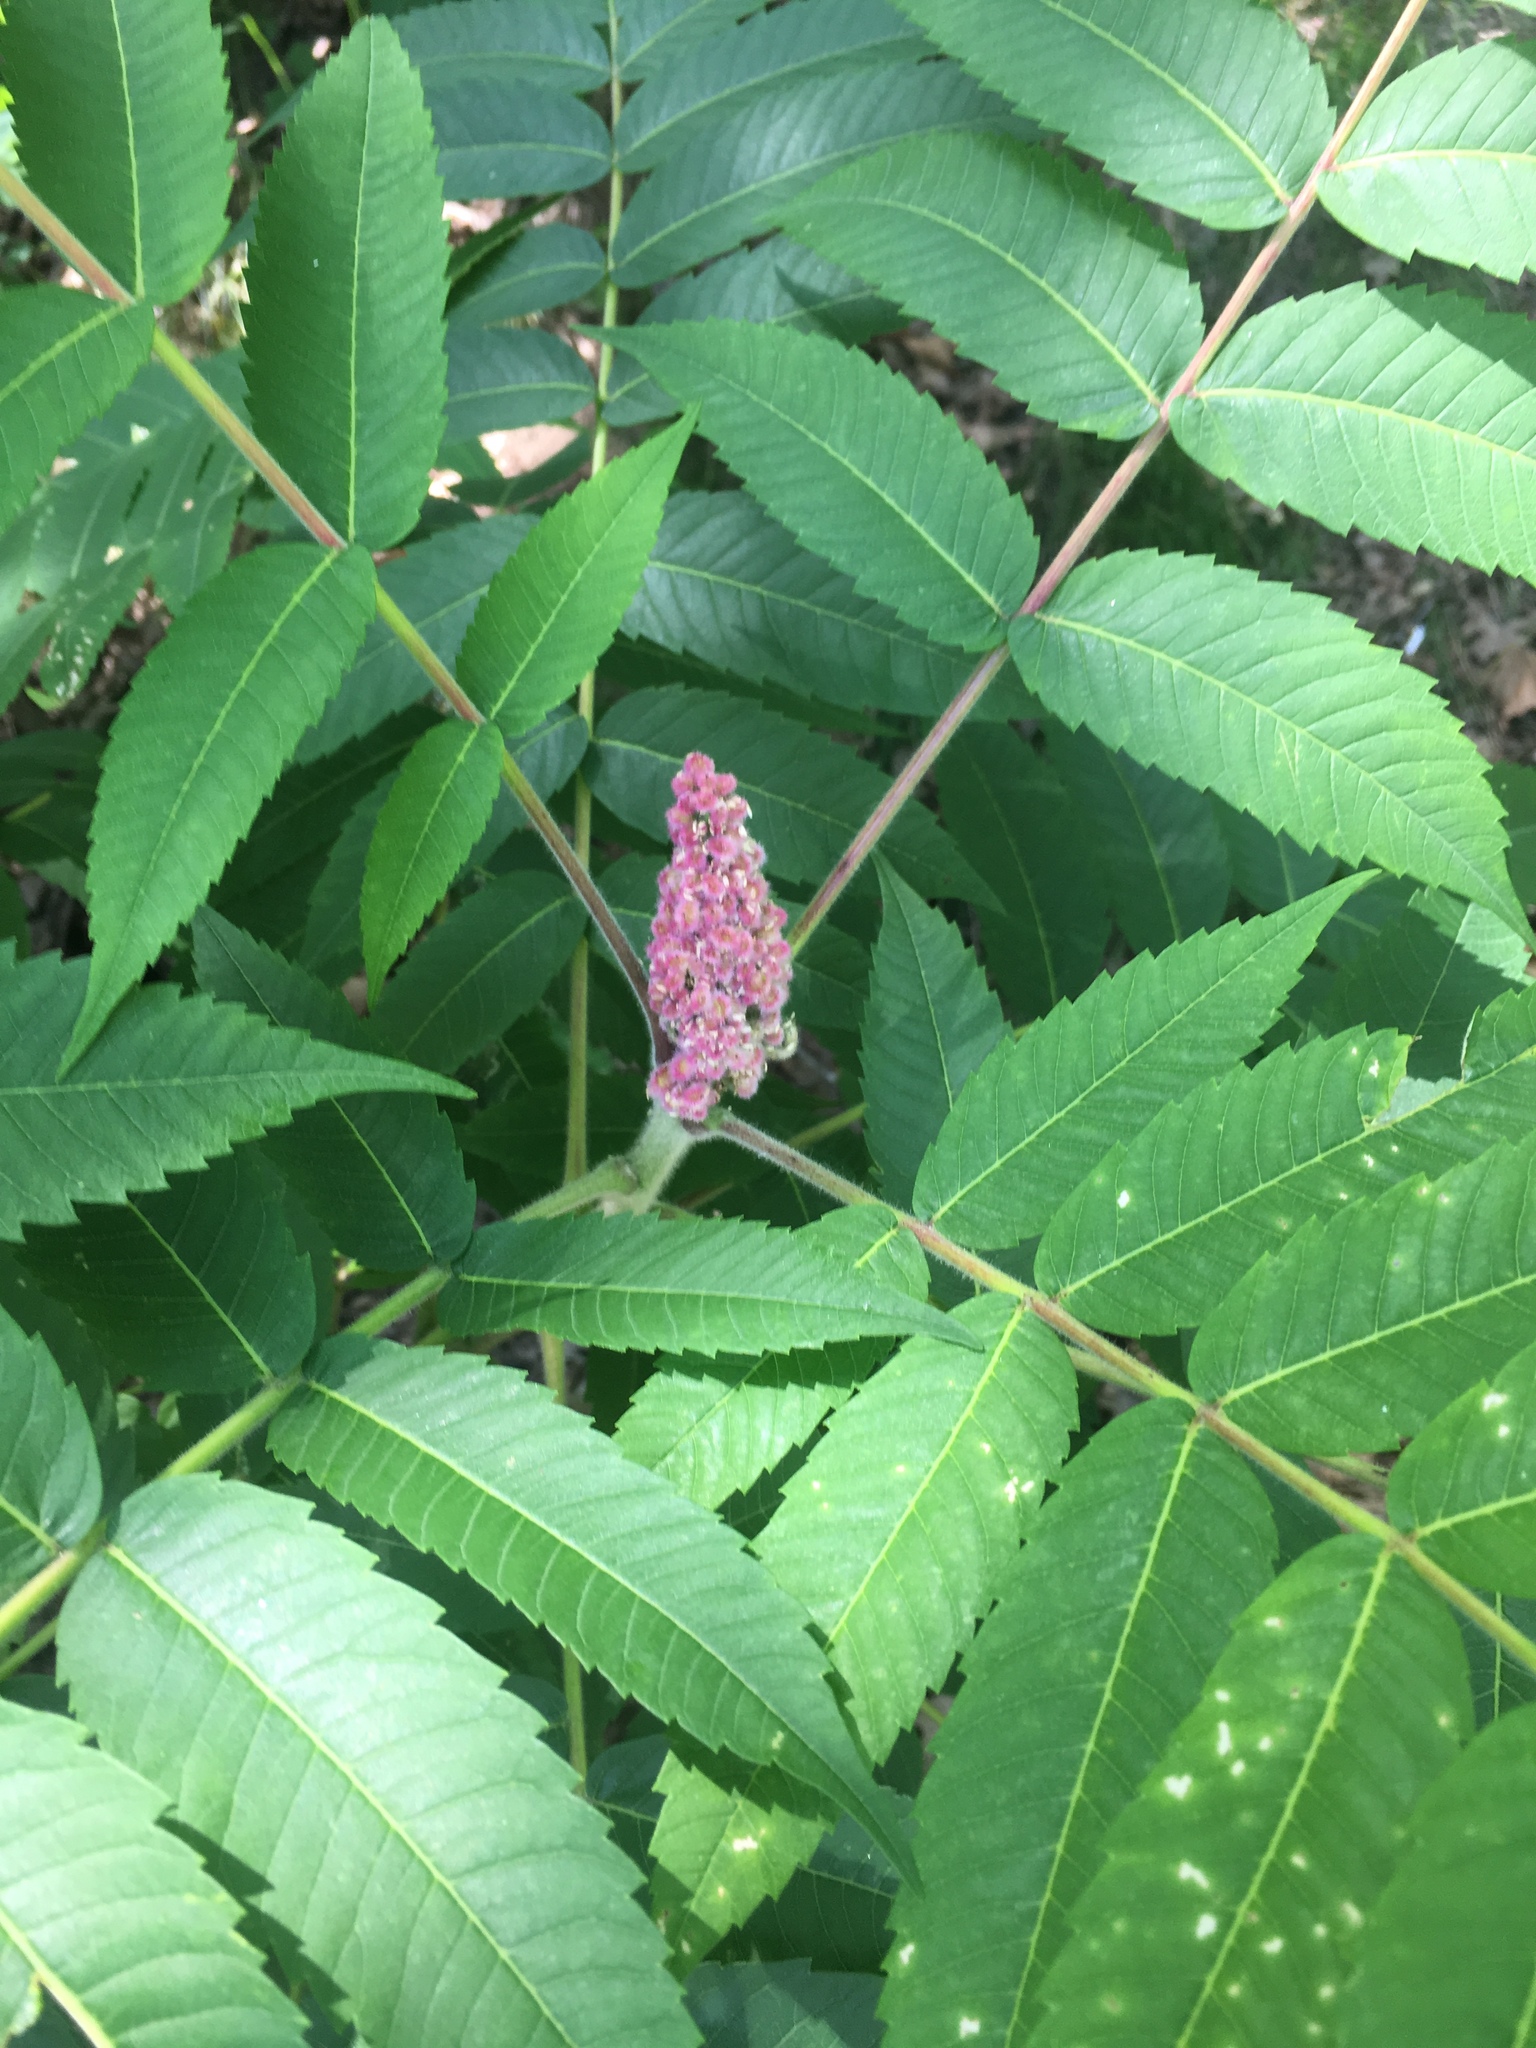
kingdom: Plantae
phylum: Tracheophyta
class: Magnoliopsida
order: Sapindales
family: Anacardiaceae
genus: Rhus
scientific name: Rhus typhina
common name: Staghorn sumac
